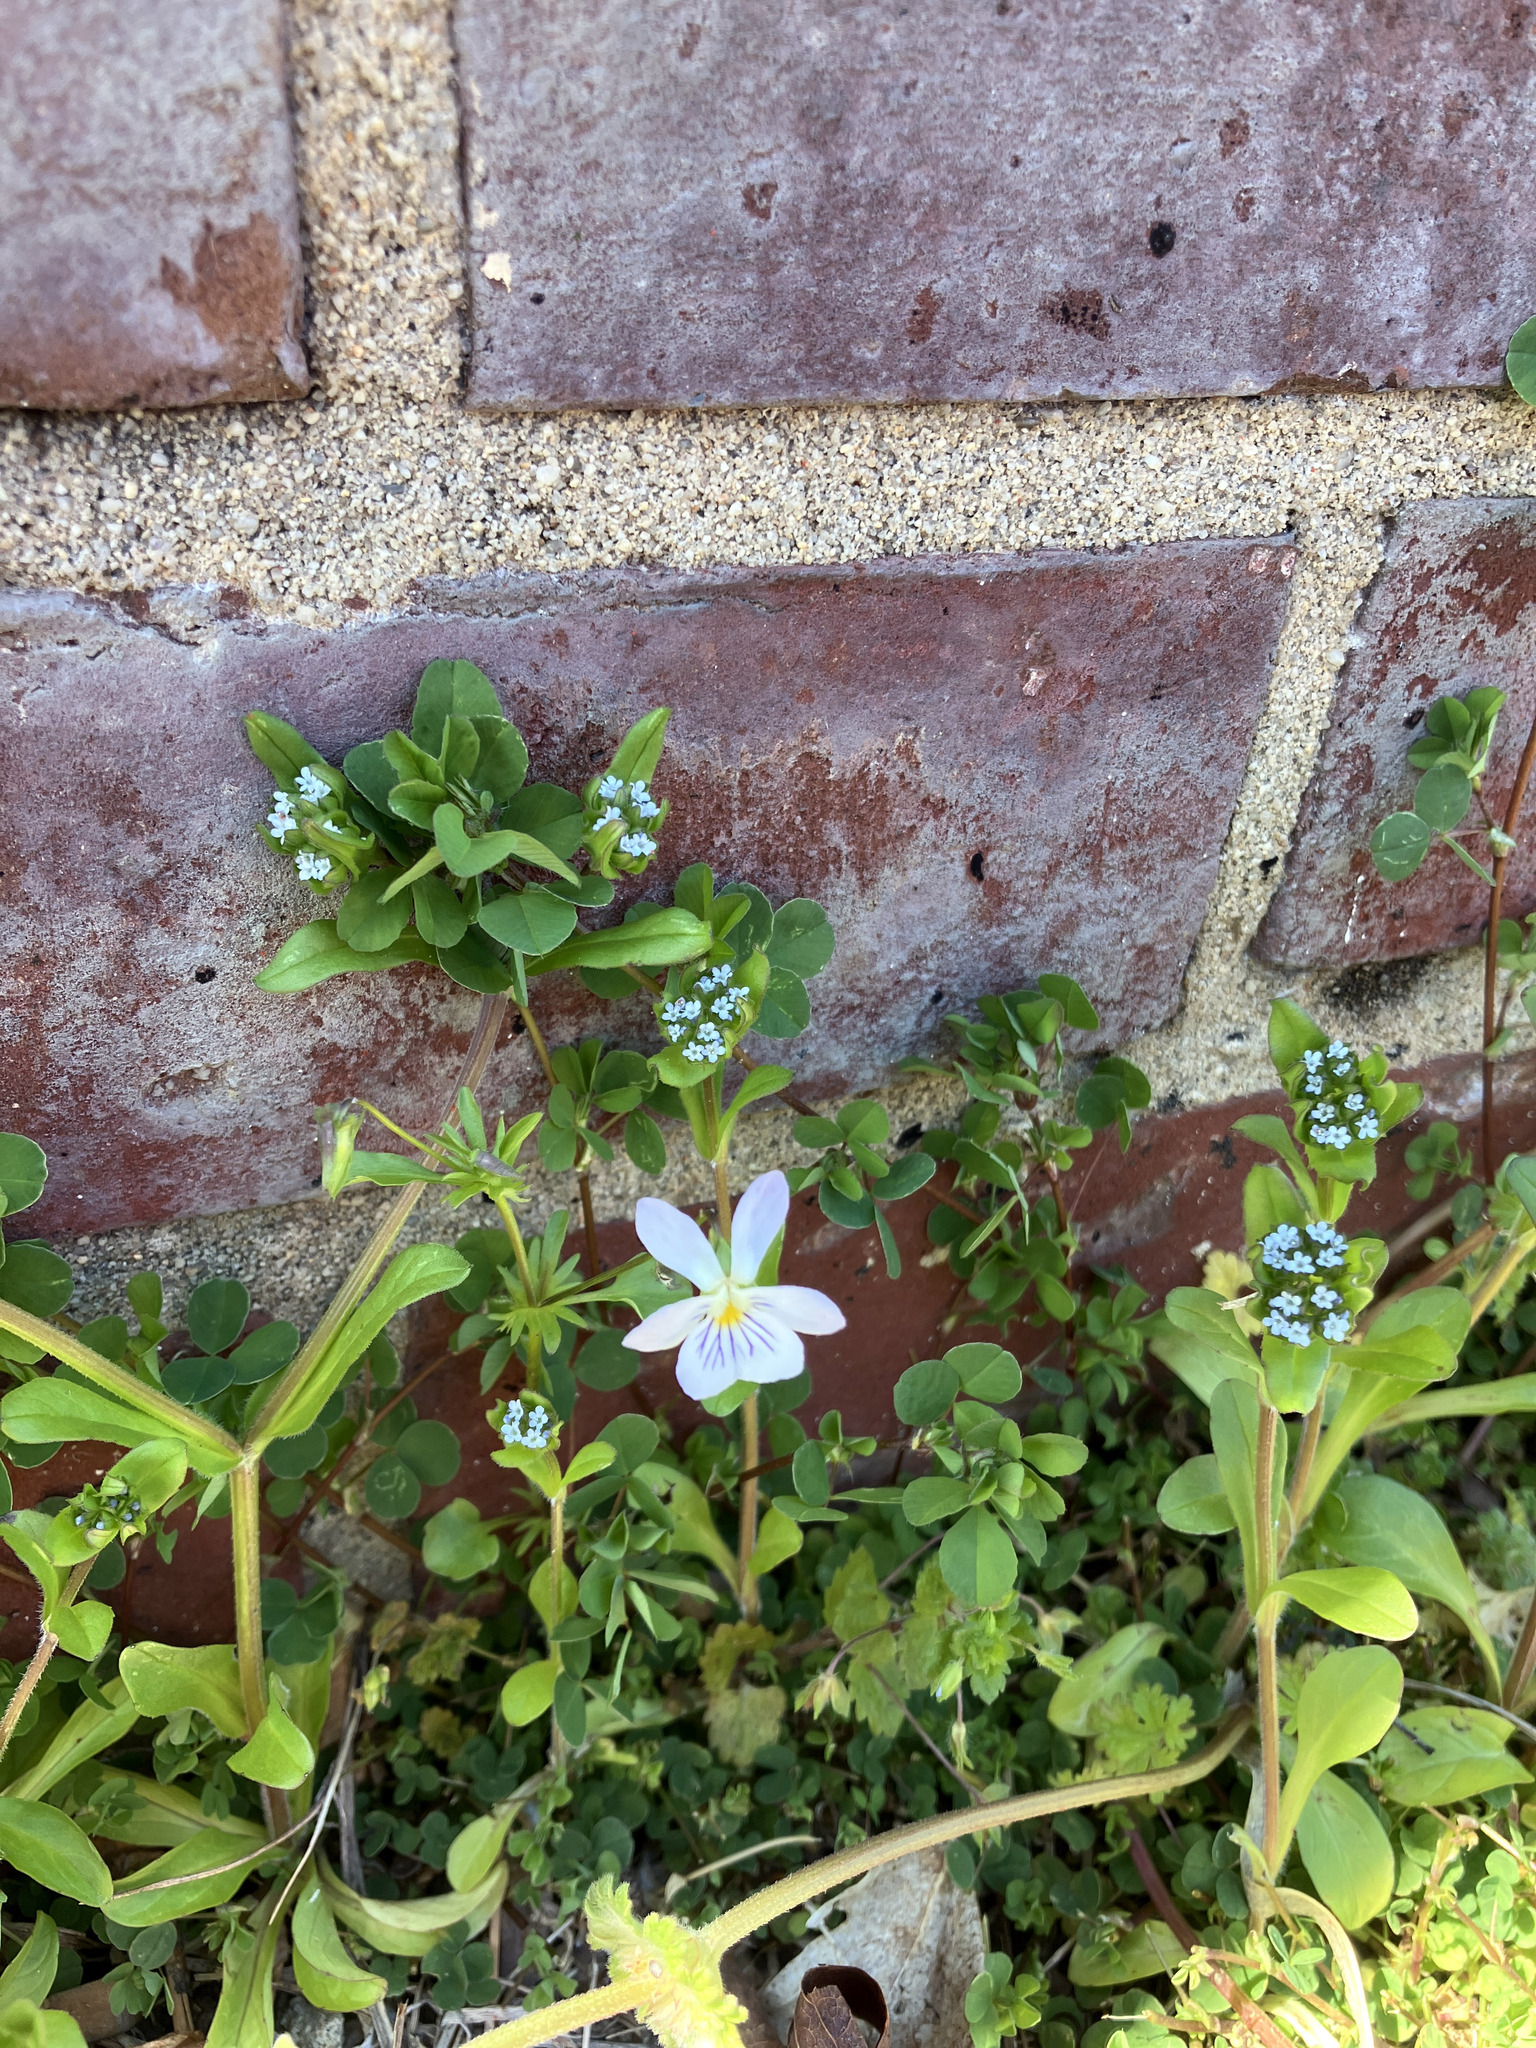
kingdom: Plantae
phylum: Tracheophyta
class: Magnoliopsida
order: Malpighiales
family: Violaceae
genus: Viola
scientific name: Viola rafinesquei
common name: American field pansy
